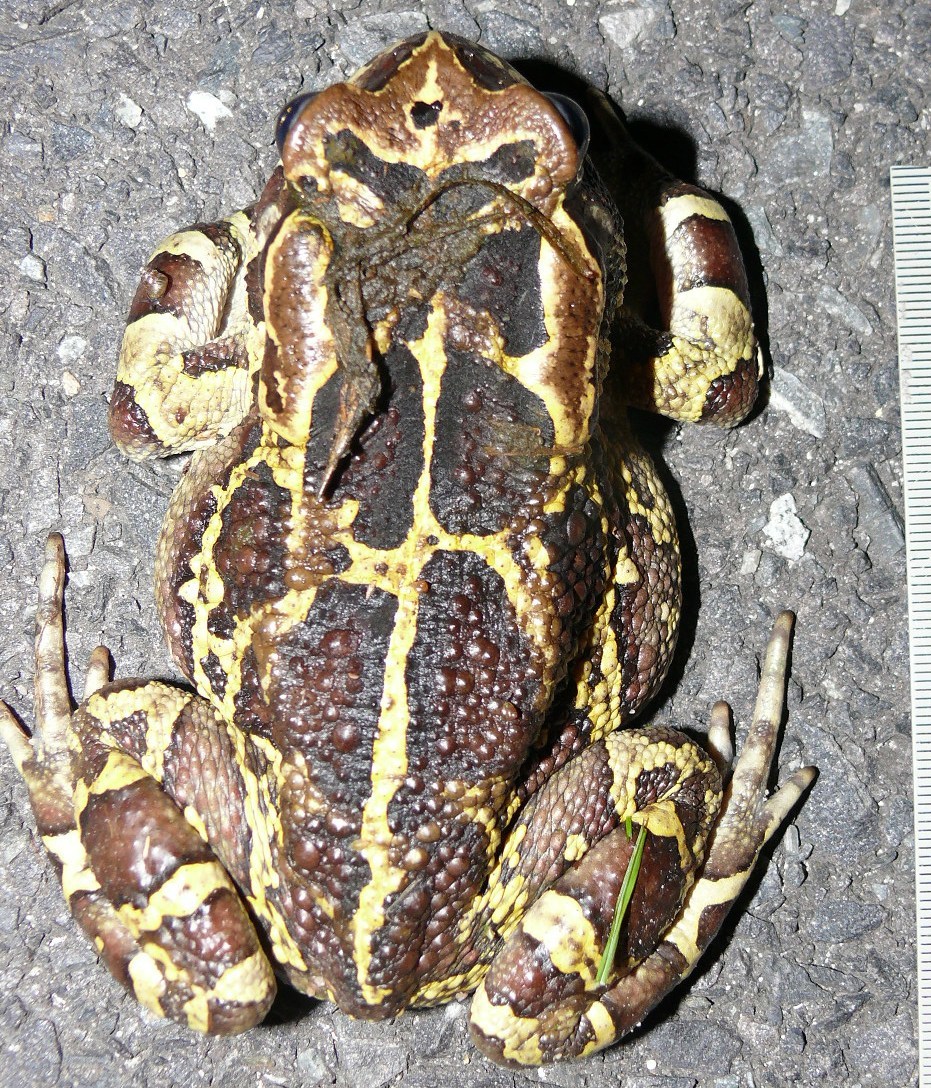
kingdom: Animalia
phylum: Chordata
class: Amphibia
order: Anura
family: Bufonidae
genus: Sclerophrys
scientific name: Sclerophrys pantherina
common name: Panther toad
